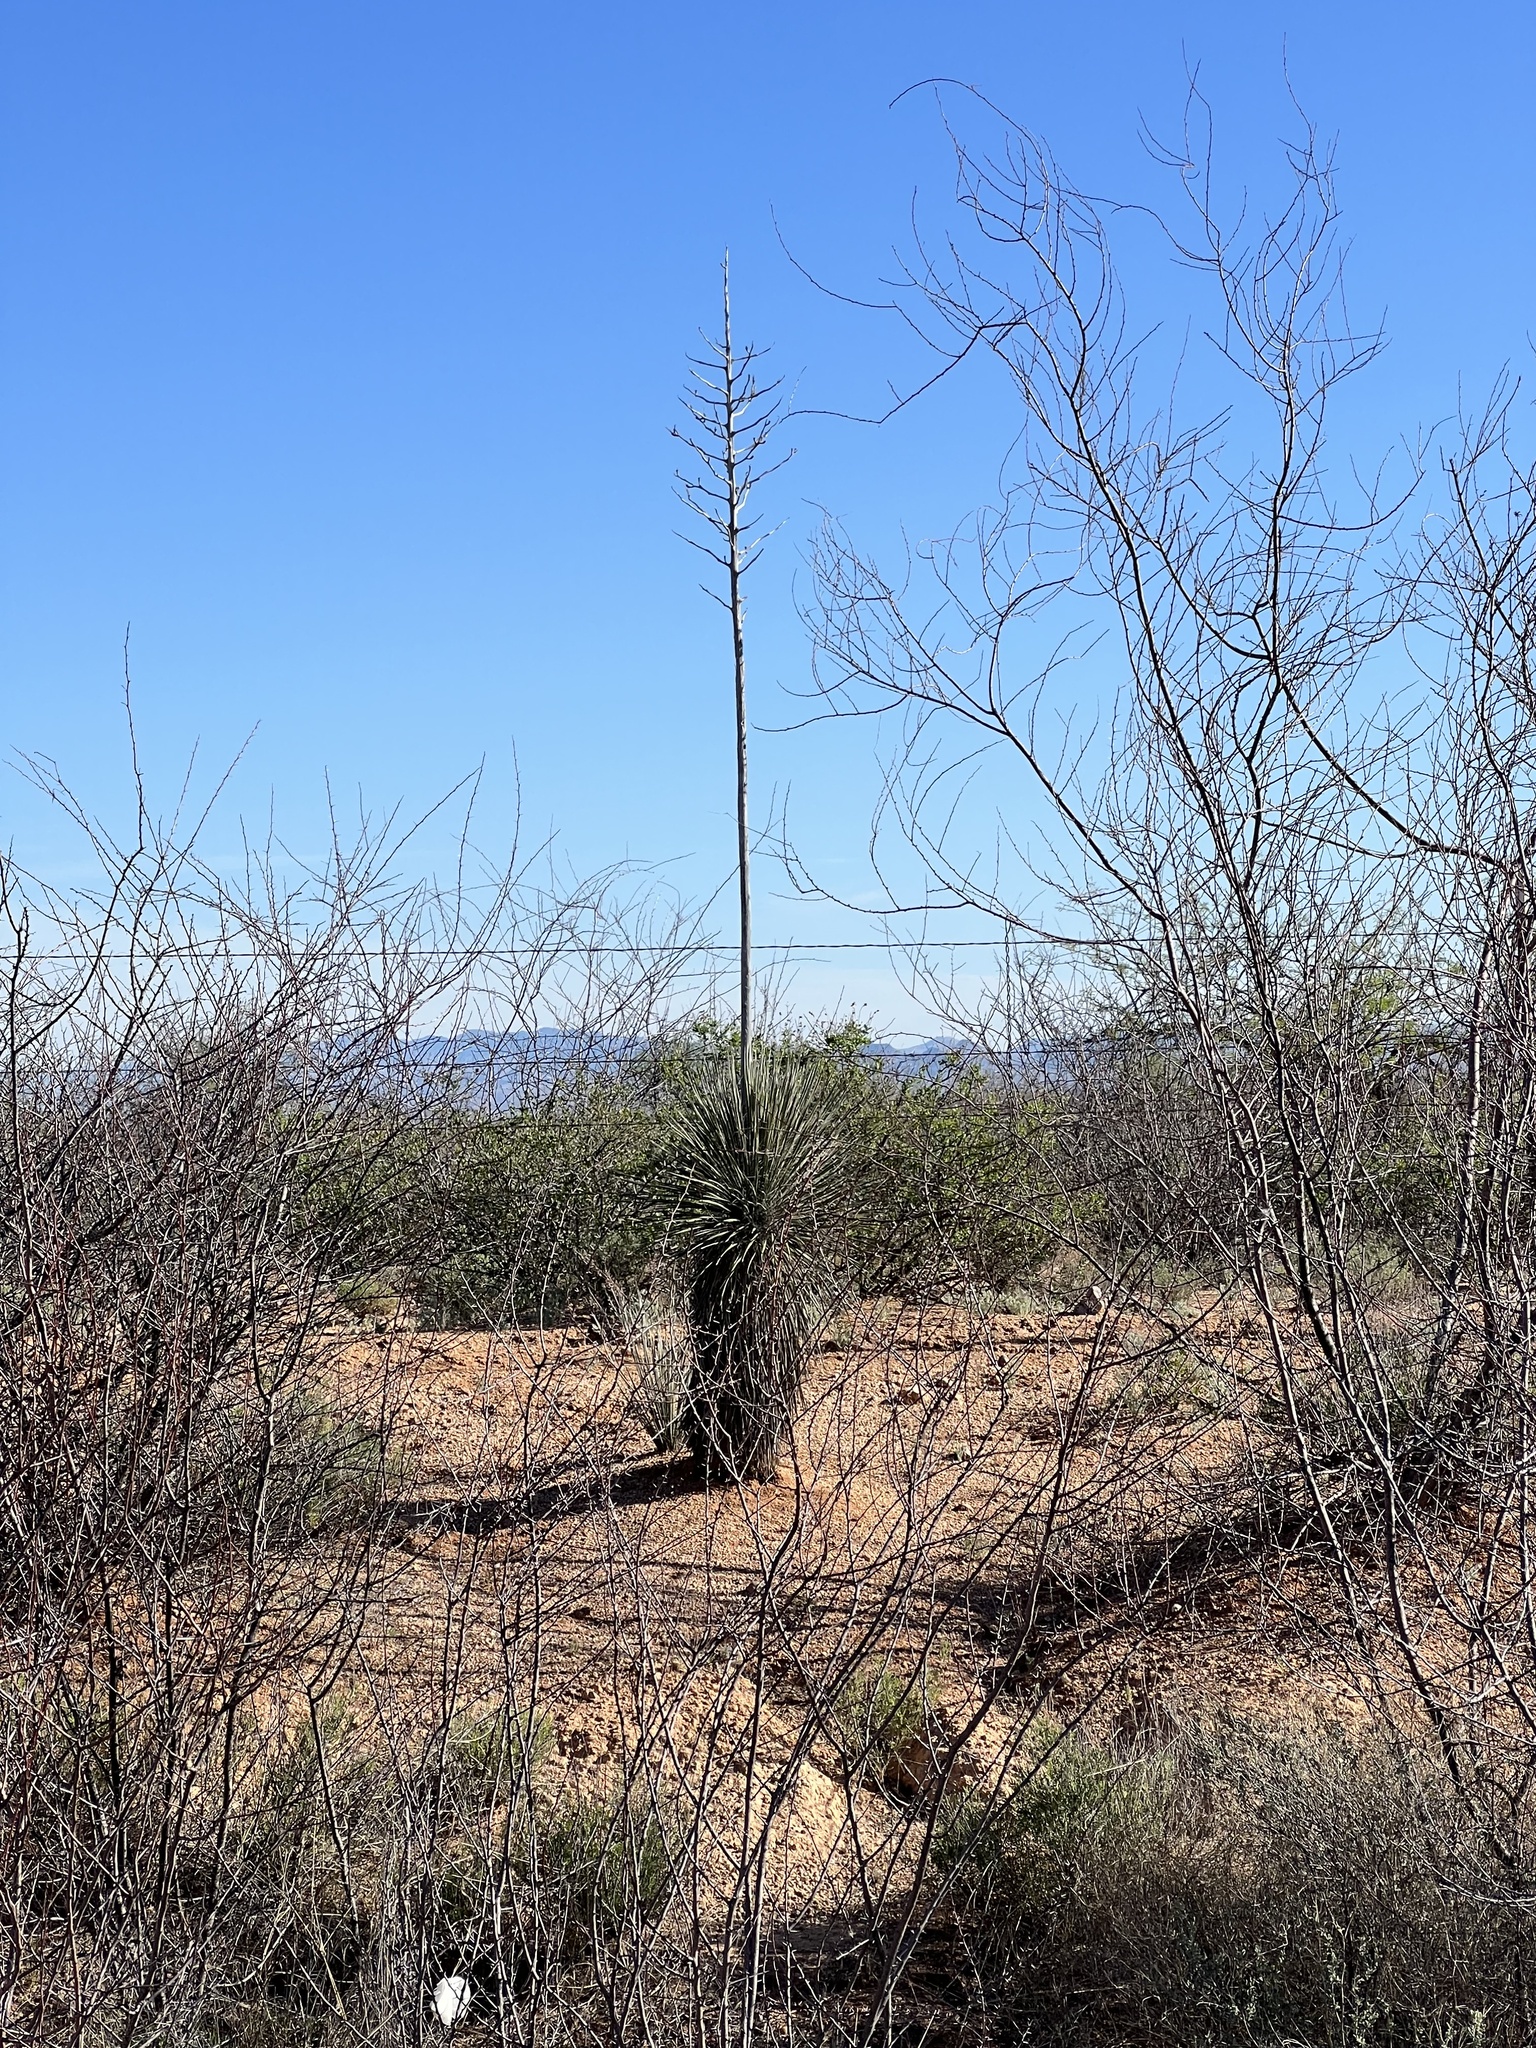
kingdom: Plantae
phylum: Tracheophyta
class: Liliopsida
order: Asparagales
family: Asparagaceae
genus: Yucca
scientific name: Yucca elata
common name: Palmella
